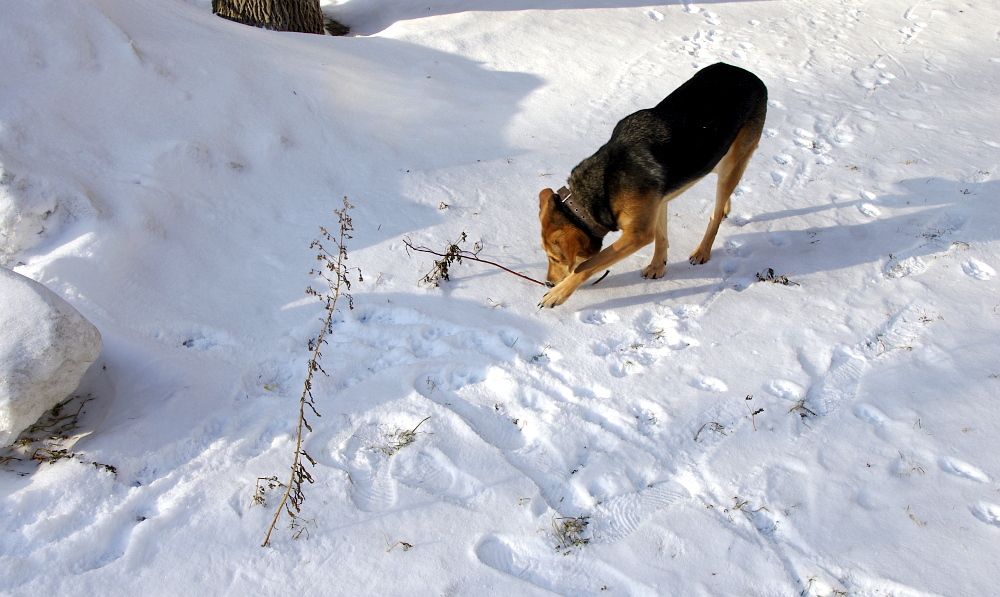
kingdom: Plantae
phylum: Tracheophyta
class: Magnoliopsida
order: Asterales
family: Asteraceae
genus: Erigeron
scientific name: Erigeron canadensis
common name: Canadian fleabane
